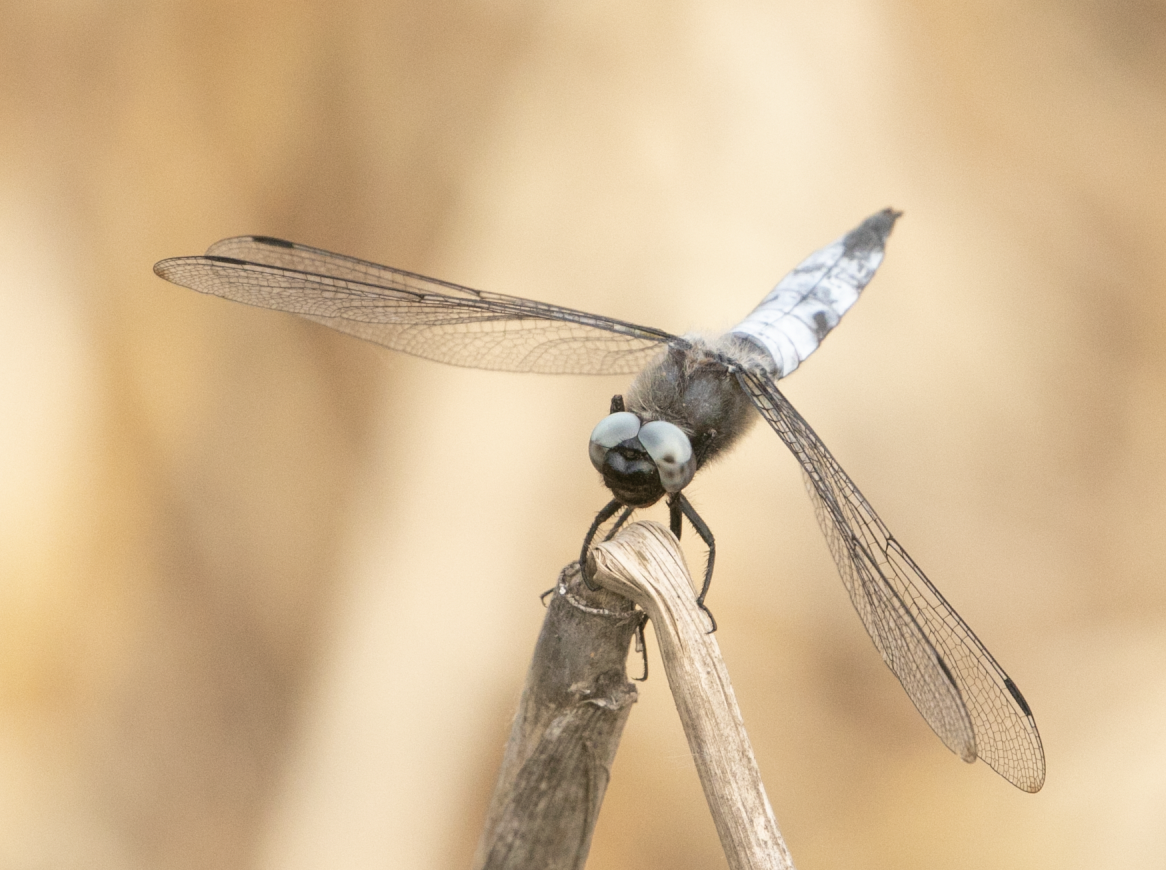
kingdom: Animalia
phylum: Arthropoda
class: Insecta
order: Odonata
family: Libellulidae
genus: Libellula
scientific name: Libellula fulva
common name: Blue chaser
